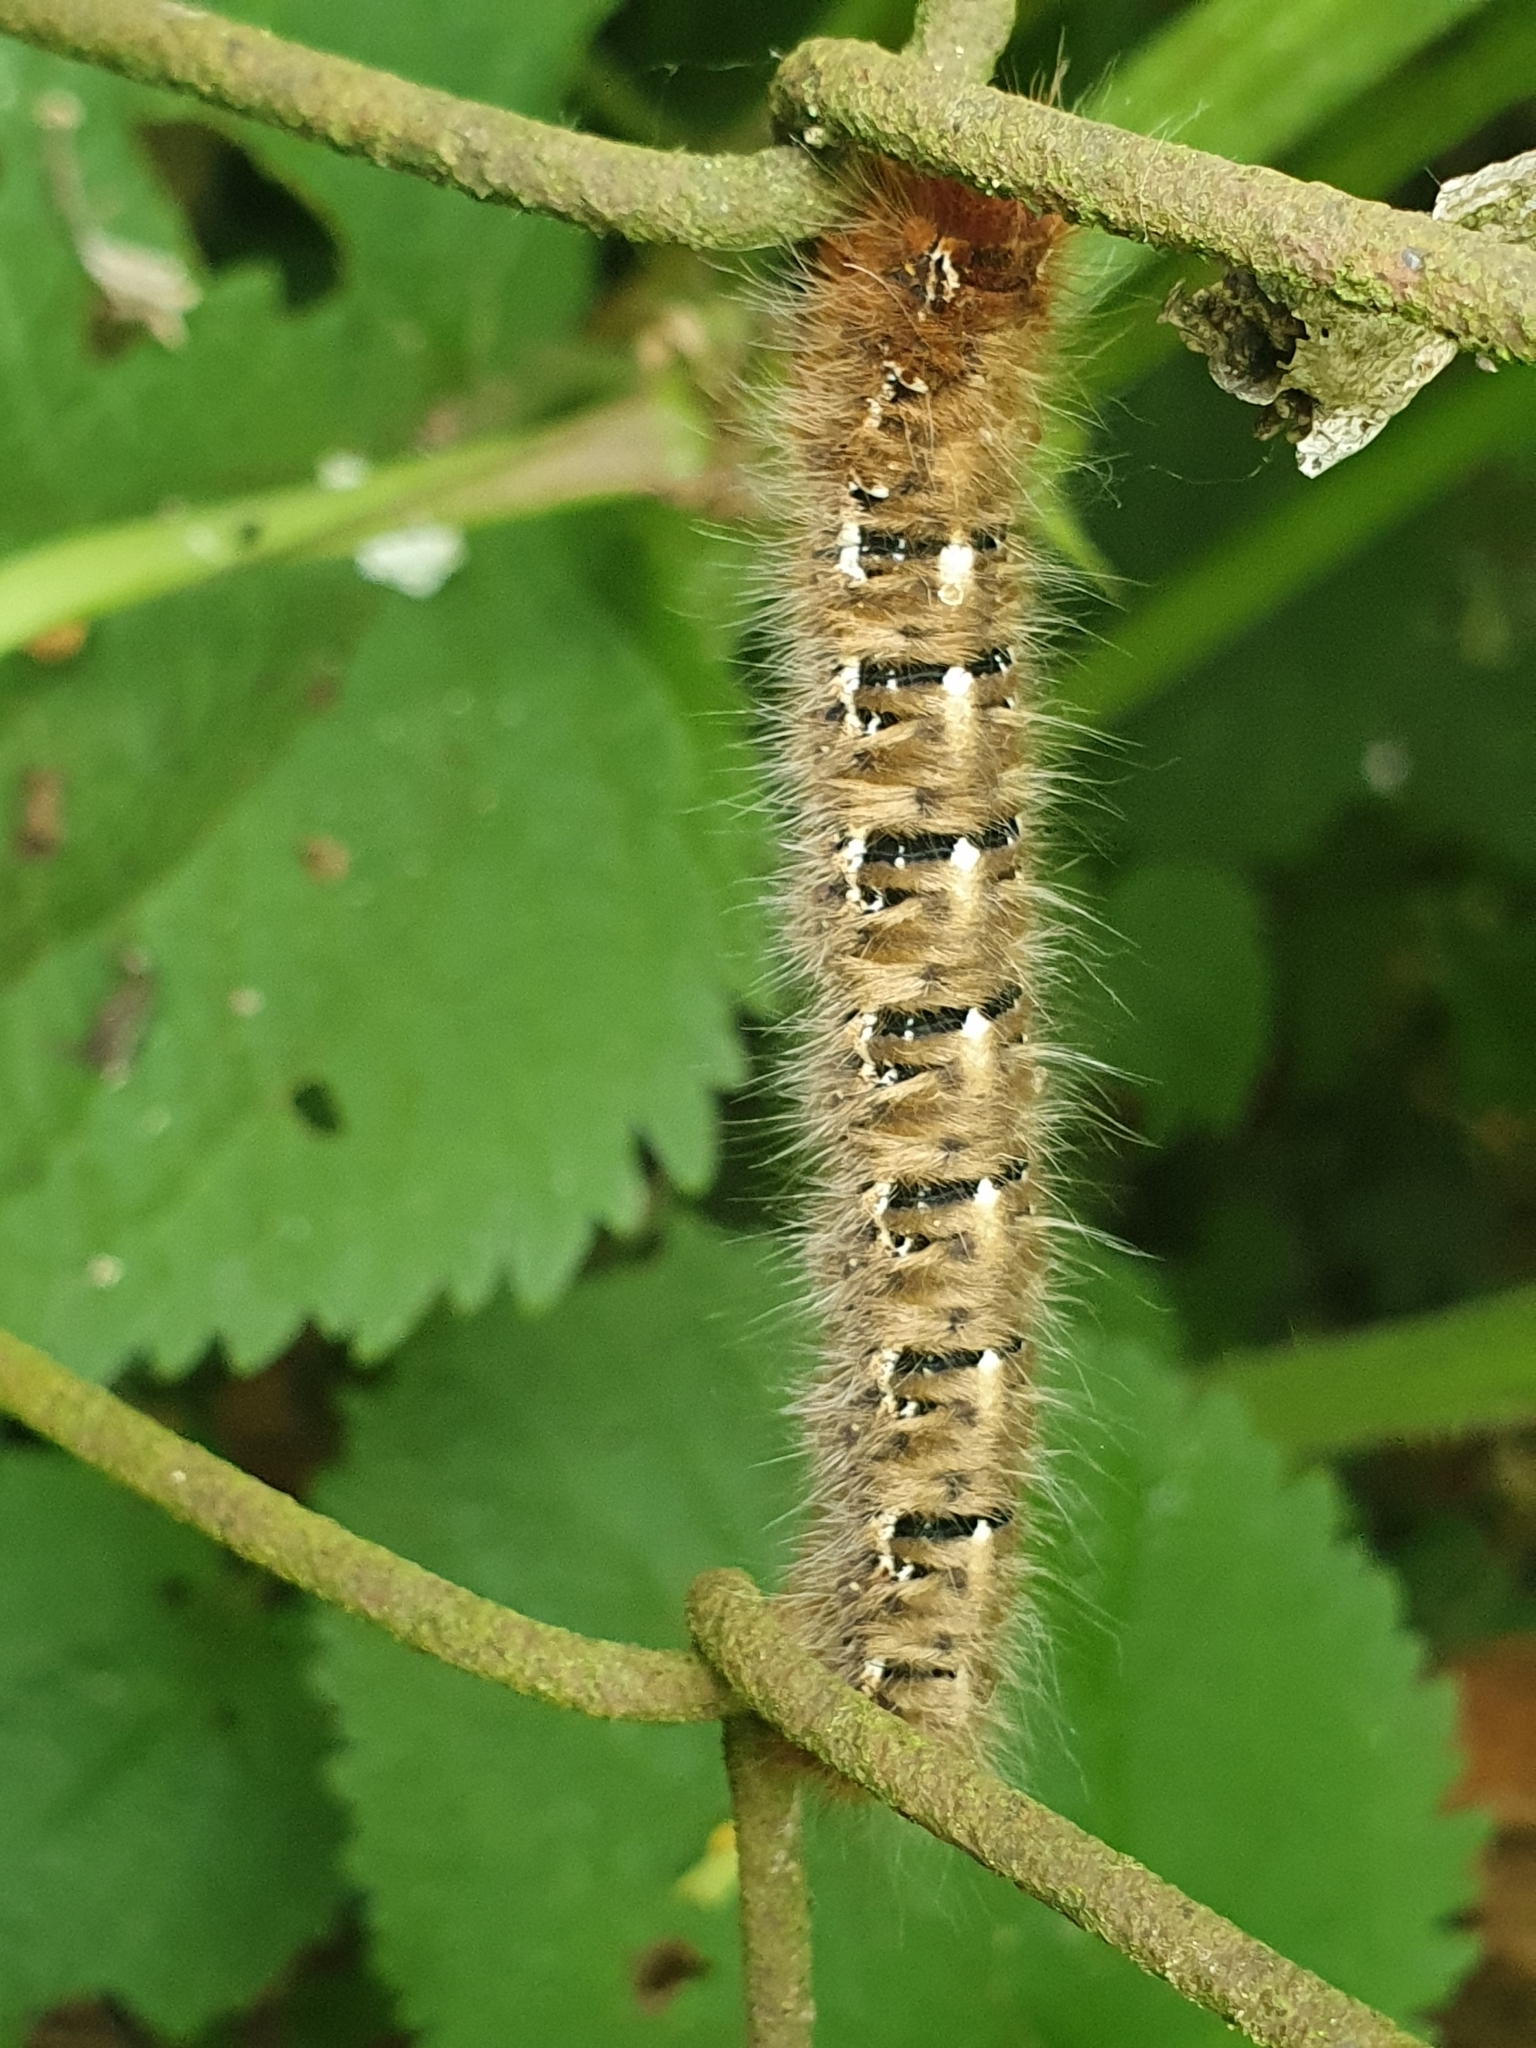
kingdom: Animalia
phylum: Arthropoda
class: Insecta
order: Lepidoptera
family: Lasiocampidae
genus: Lasiocampa
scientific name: Lasiocampa quercus
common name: Oak eggar
